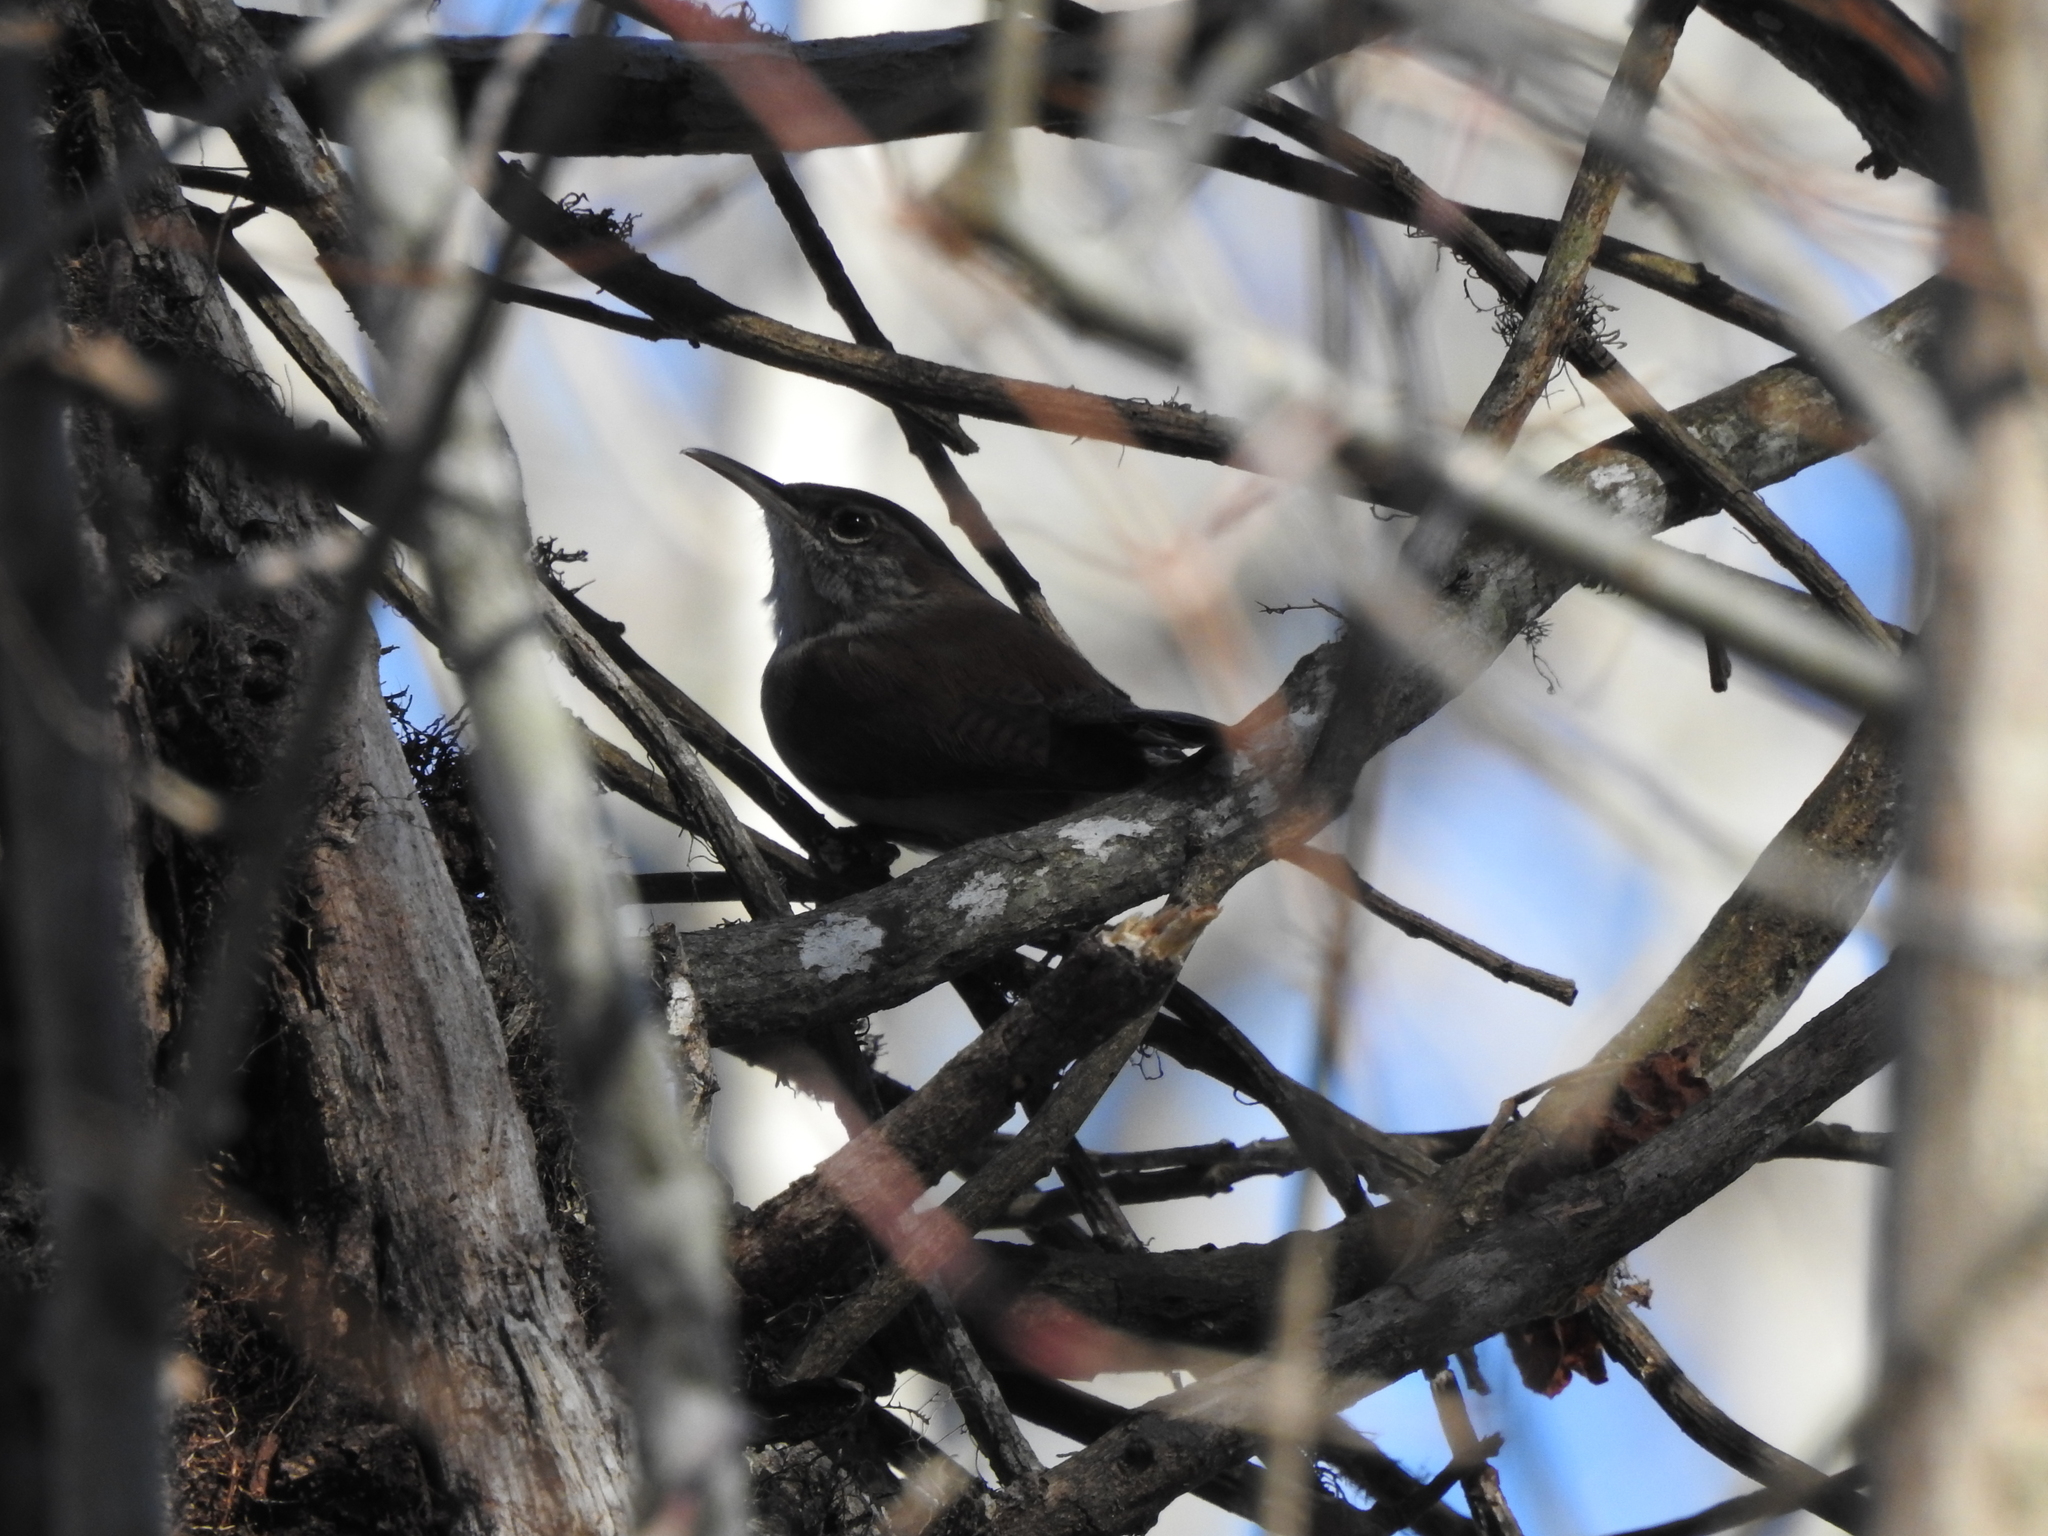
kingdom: Animalia
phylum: Chordata
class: Aves
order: Passeriformes
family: Troglodytidae
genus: Thryomanes
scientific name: Thryomanes bewickii
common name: Bewick's wren
